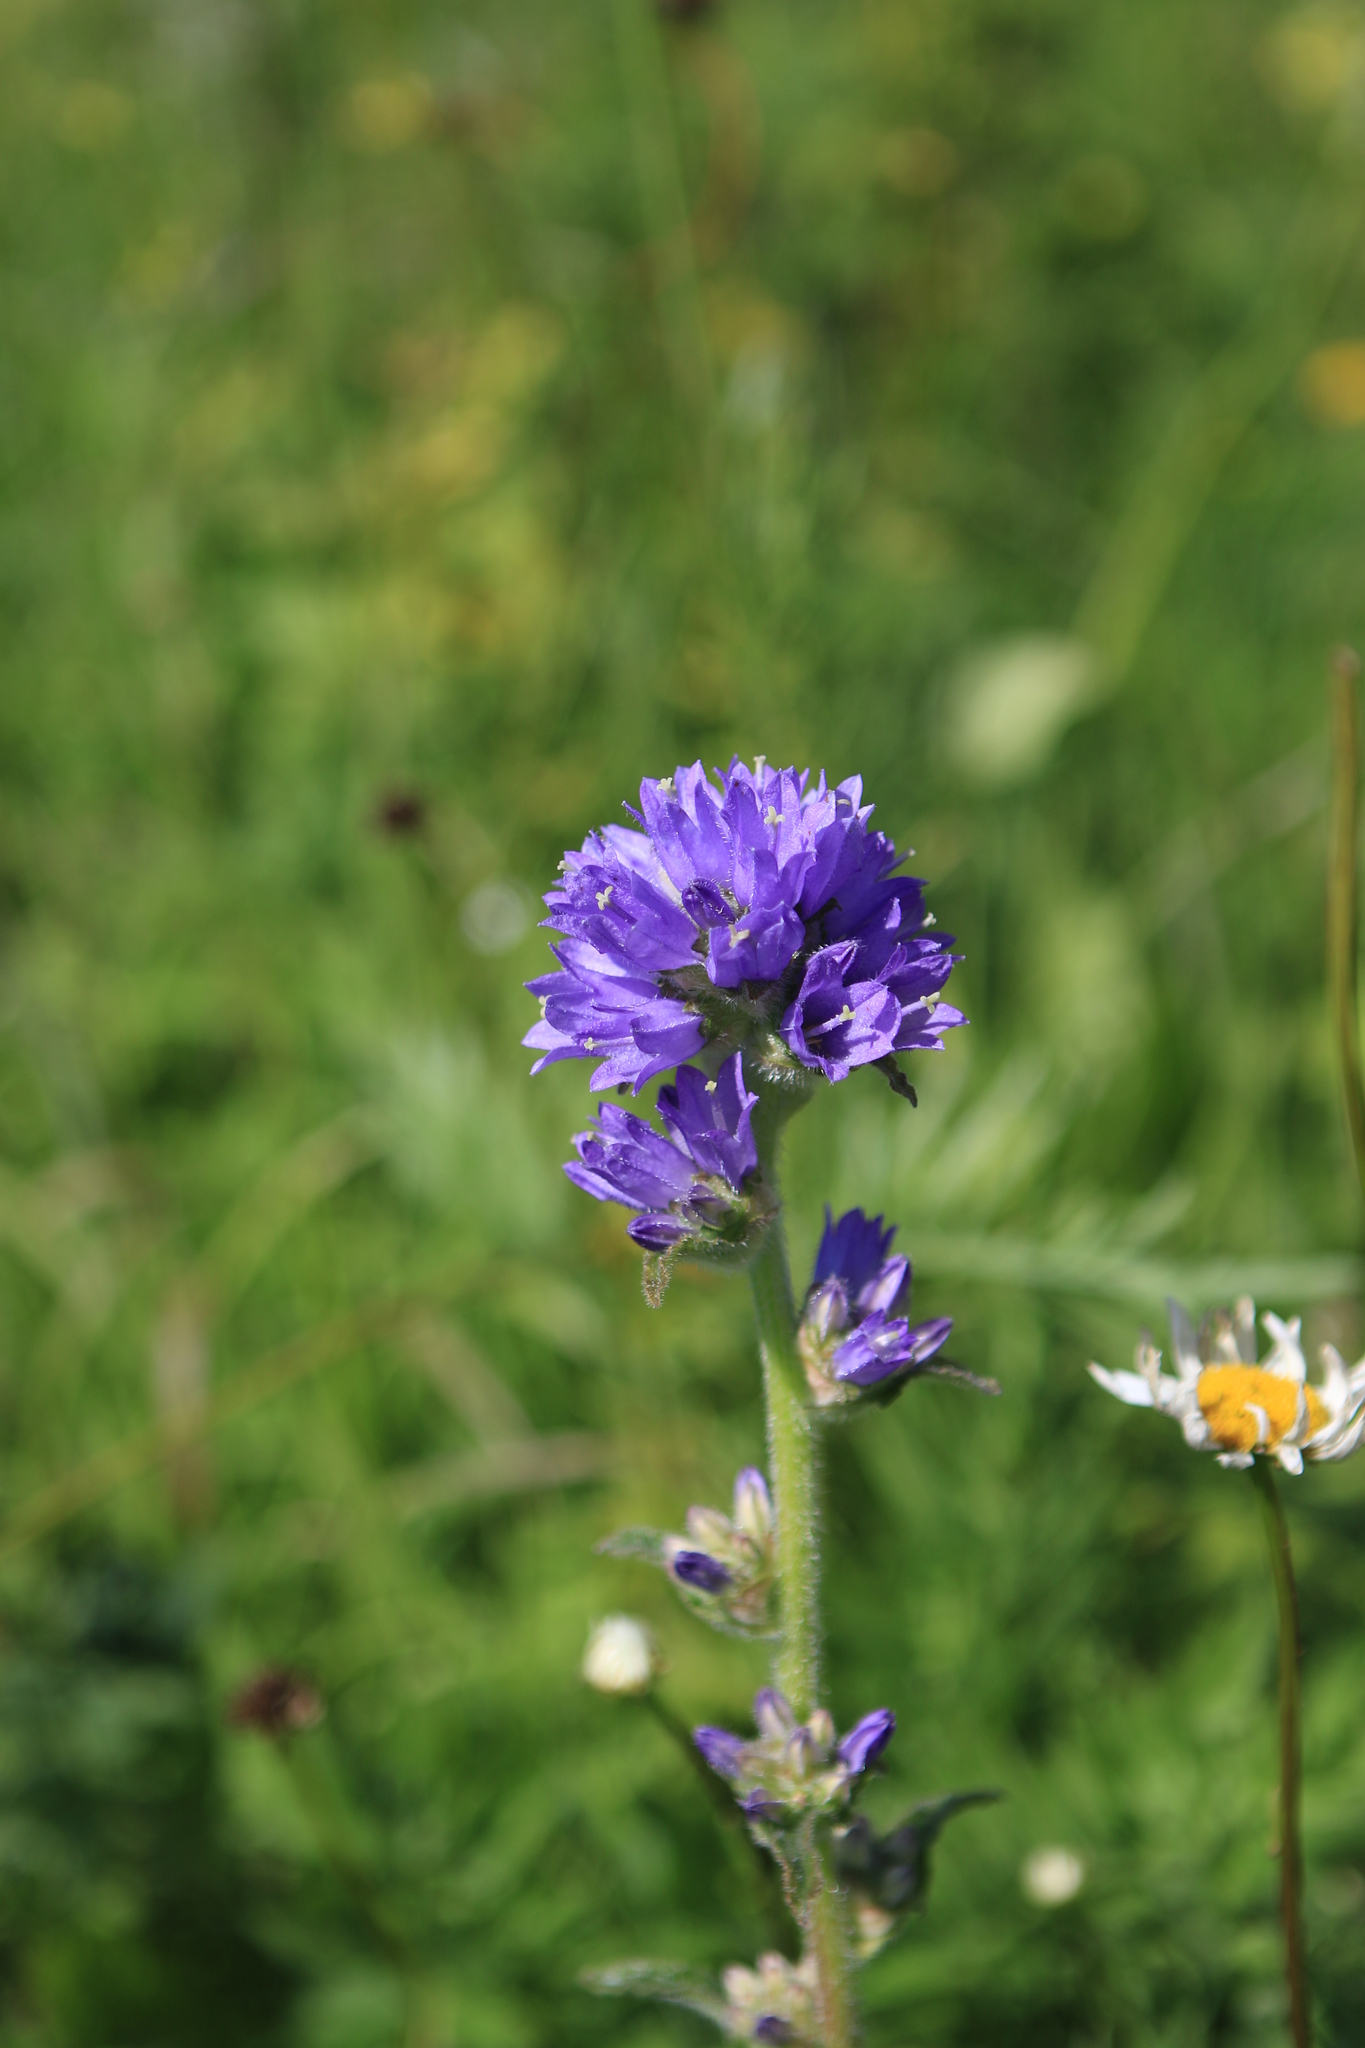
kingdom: Plantae
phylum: Tracheophyta
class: Magnoliopsida
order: Asterales
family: Campanulaceae
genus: Campanula
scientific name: Campanula cervicaria
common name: Bristly bellflower
